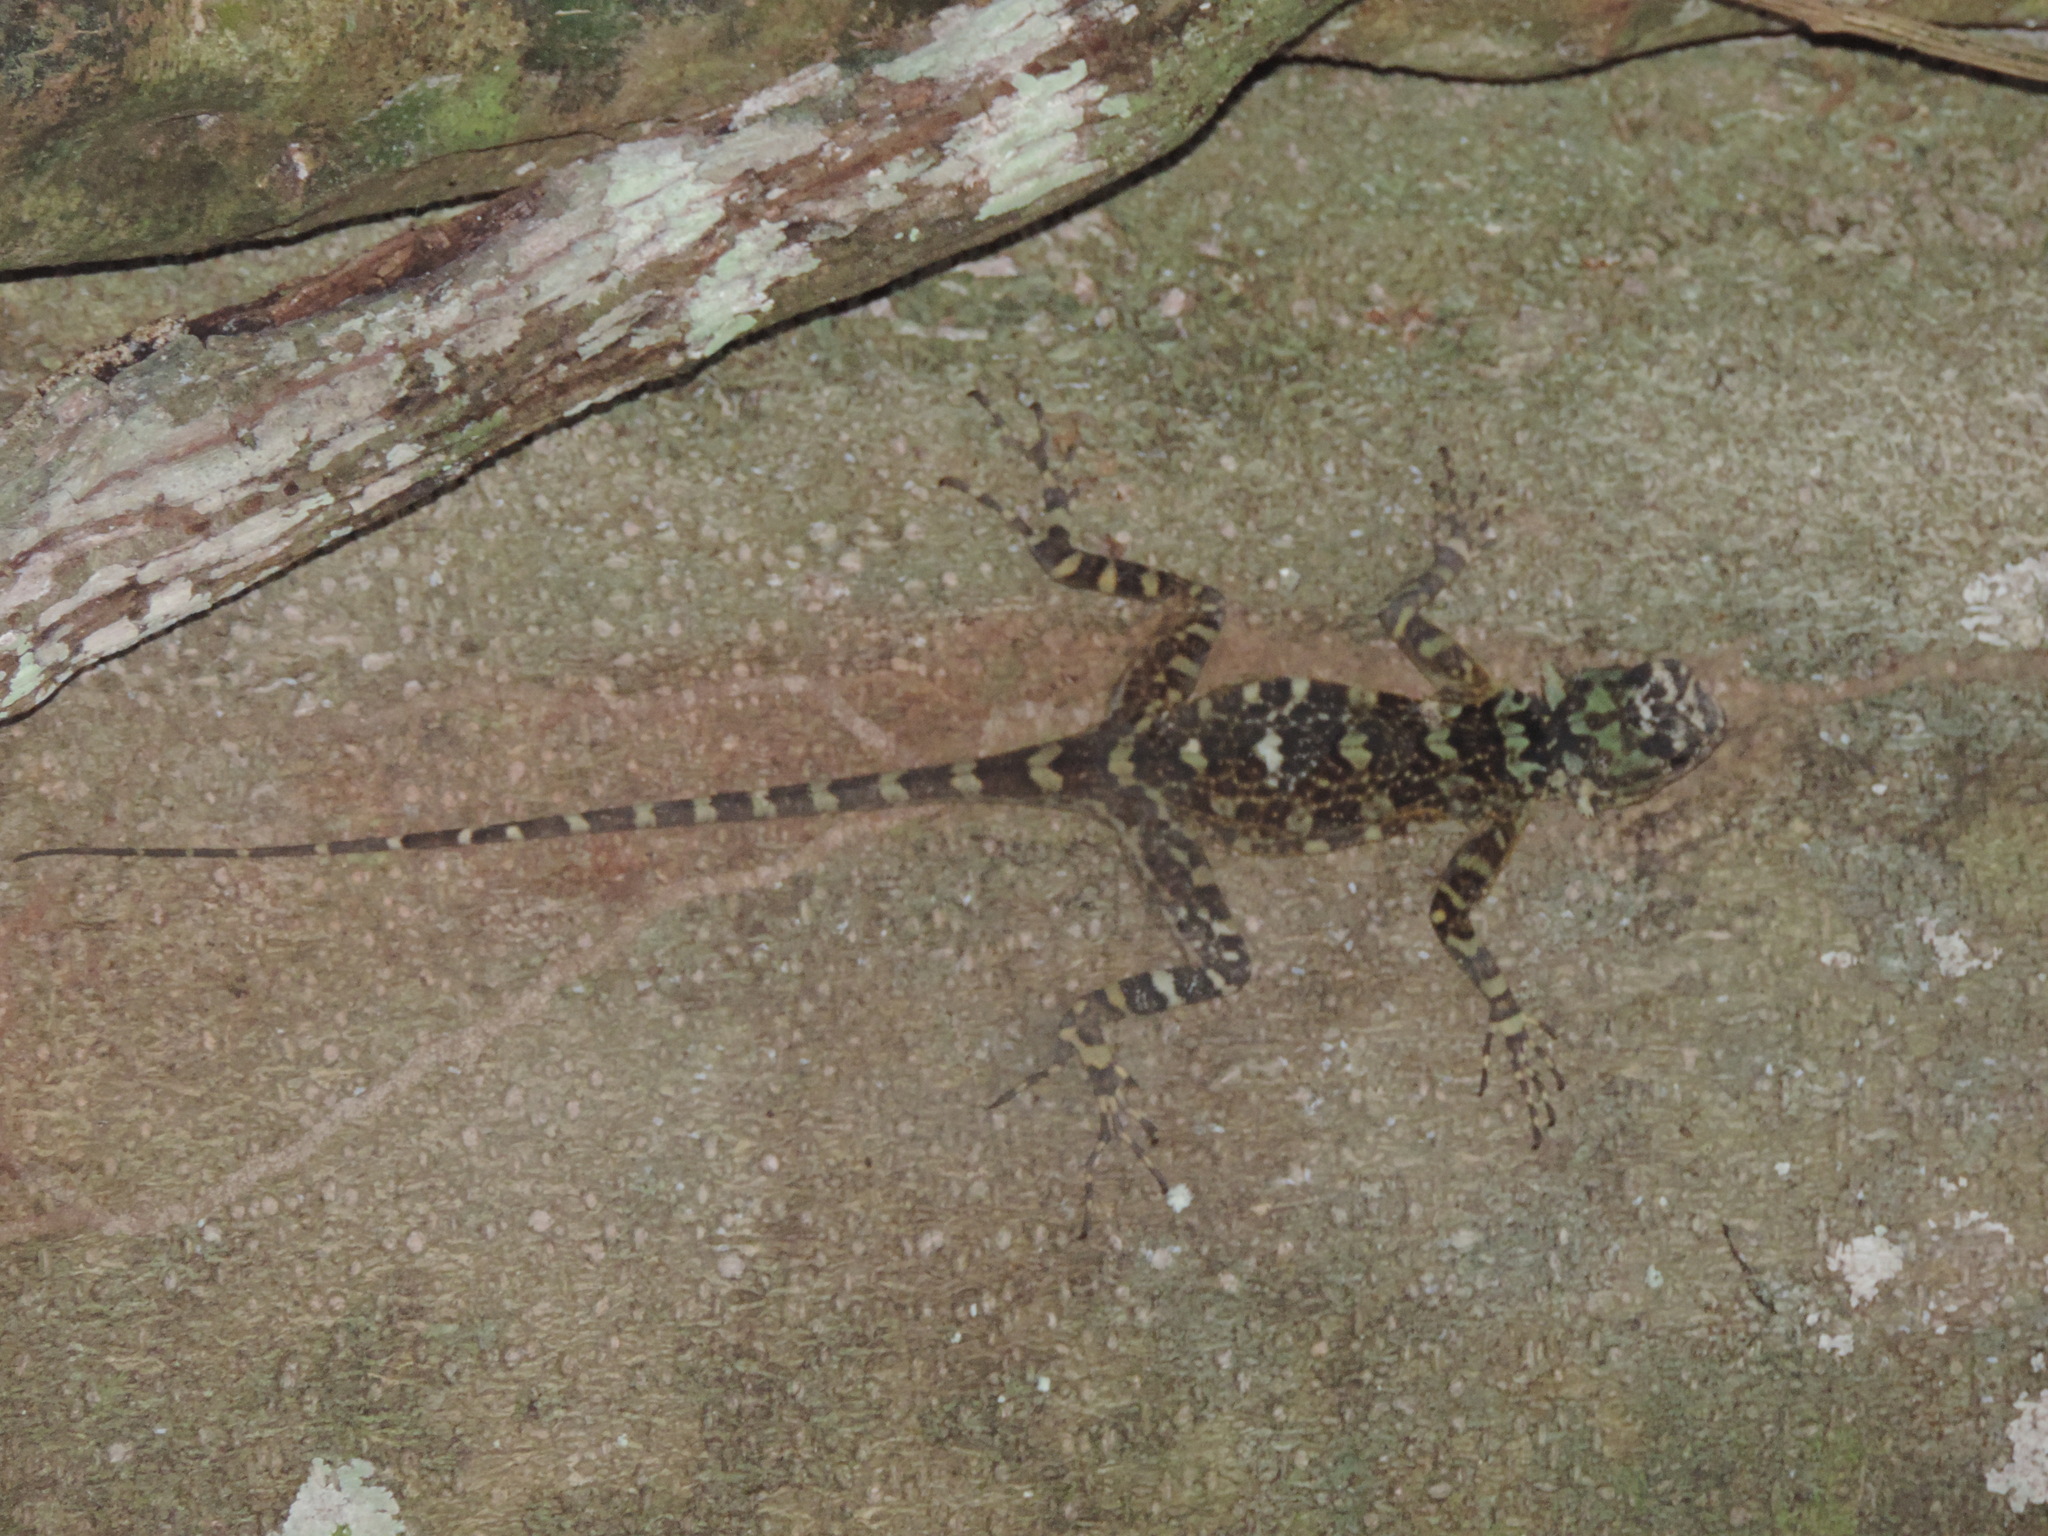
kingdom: Animalia
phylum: Chordata
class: Squamata
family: Tropiduridae
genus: Plica
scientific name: Plica plica
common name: Tree runner
